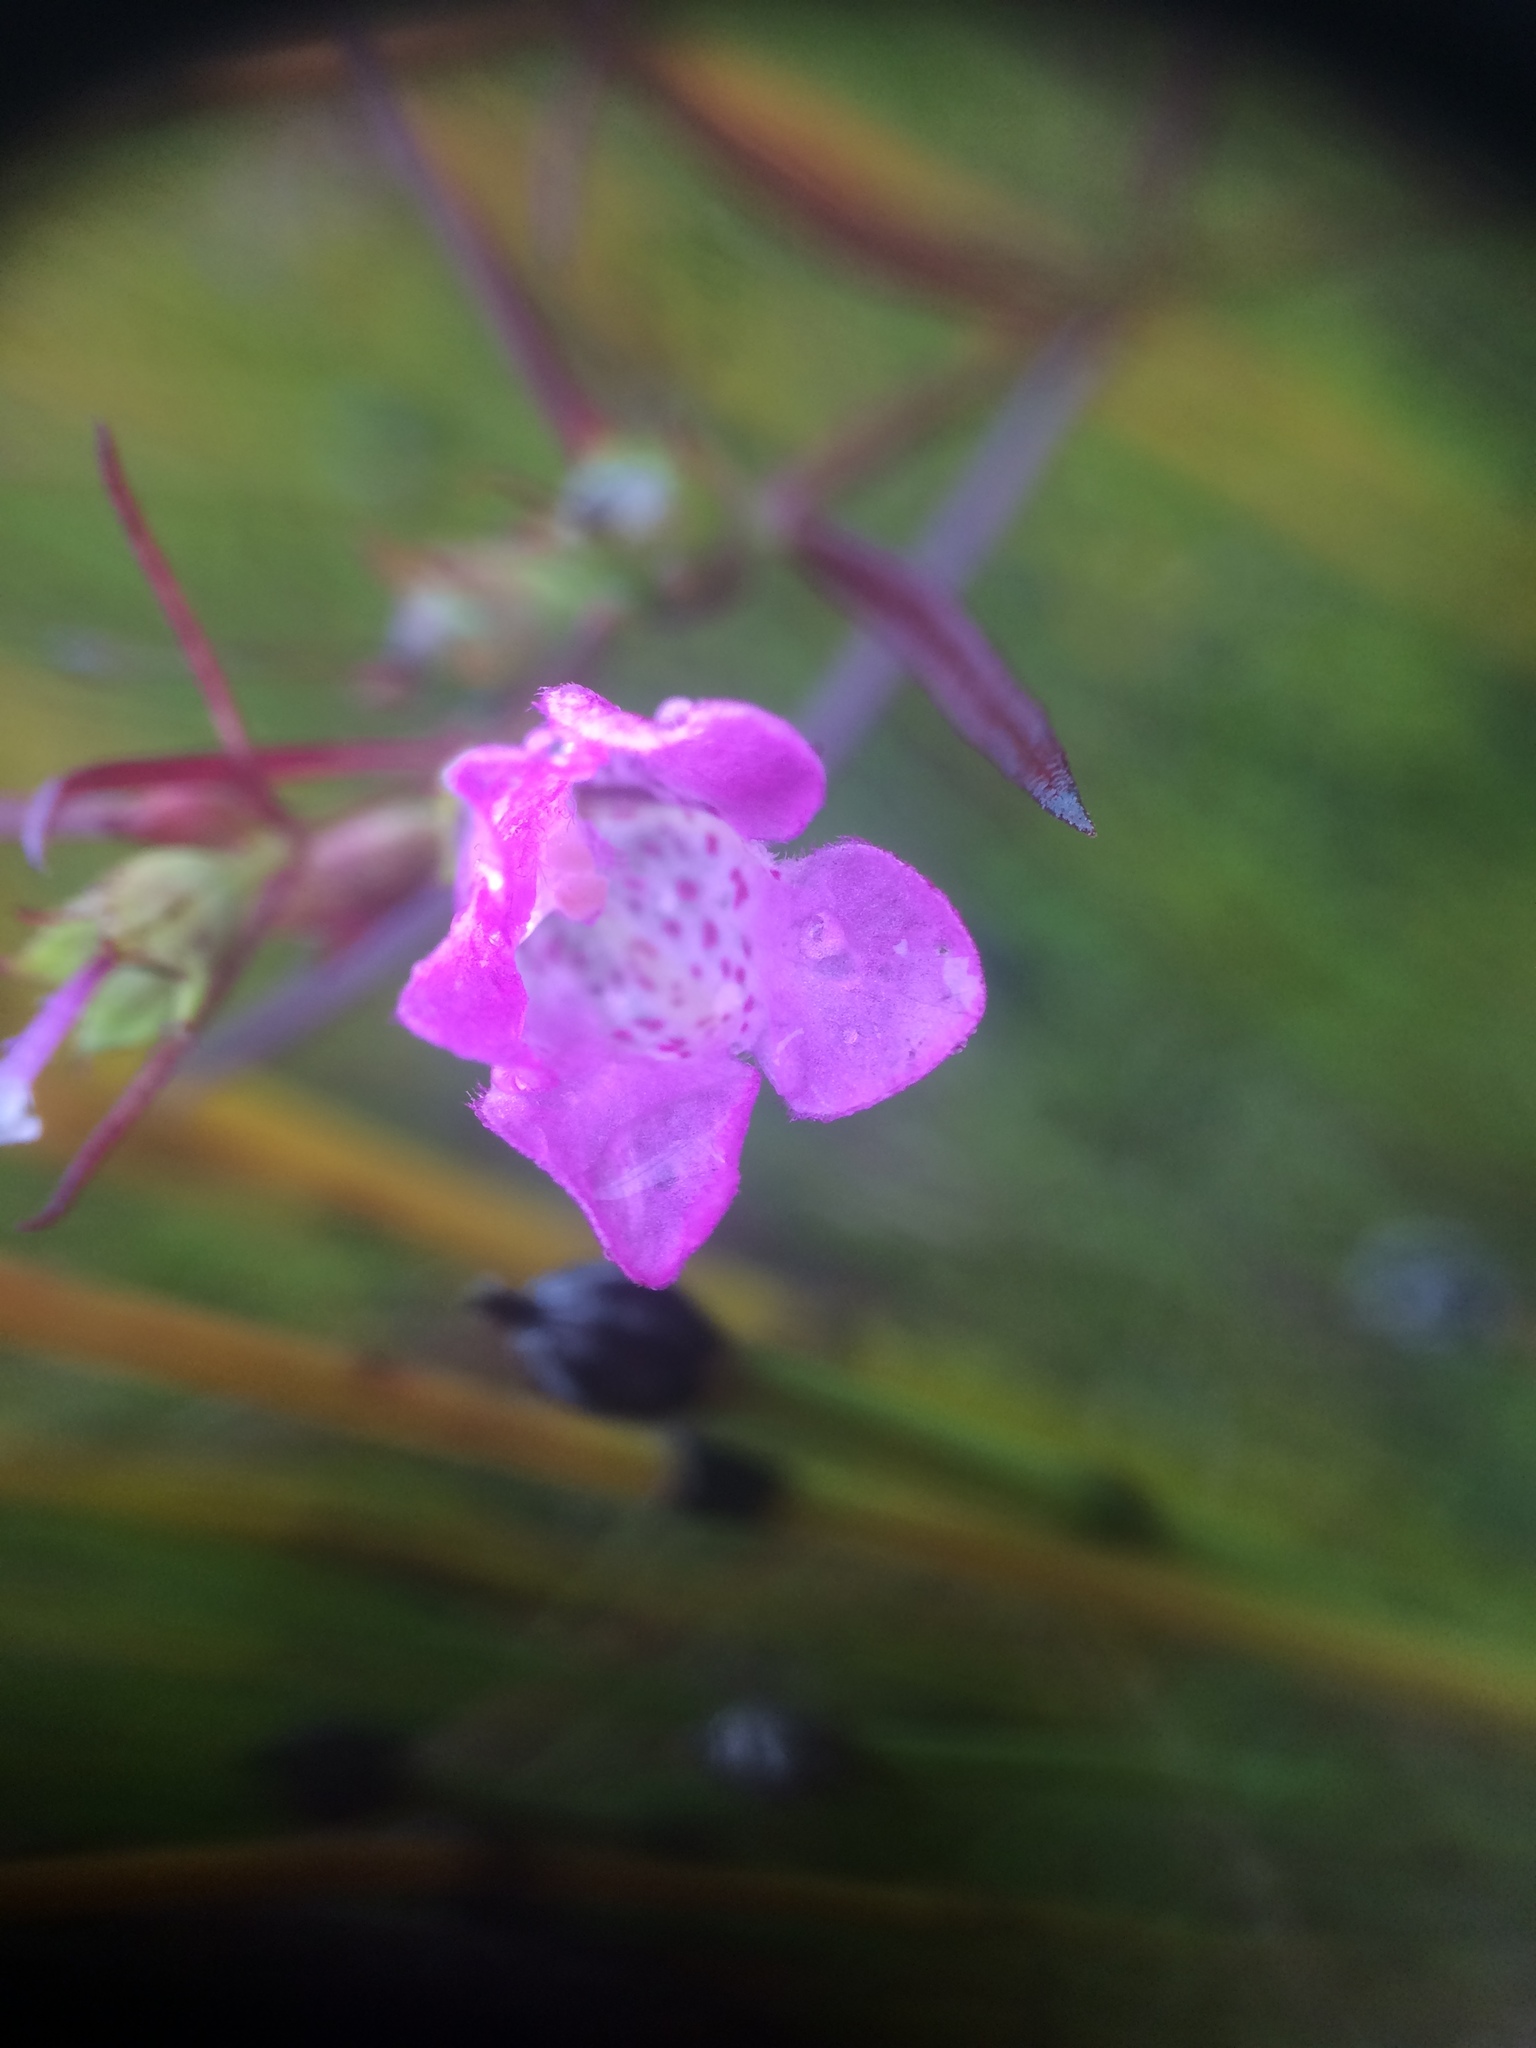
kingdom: Plantae
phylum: Tracheophyta
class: Magnoliopsida
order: Lamiales
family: Orobanchaceae
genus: Agalinis
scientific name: Agalinis purpurea
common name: Purple false foxglove
